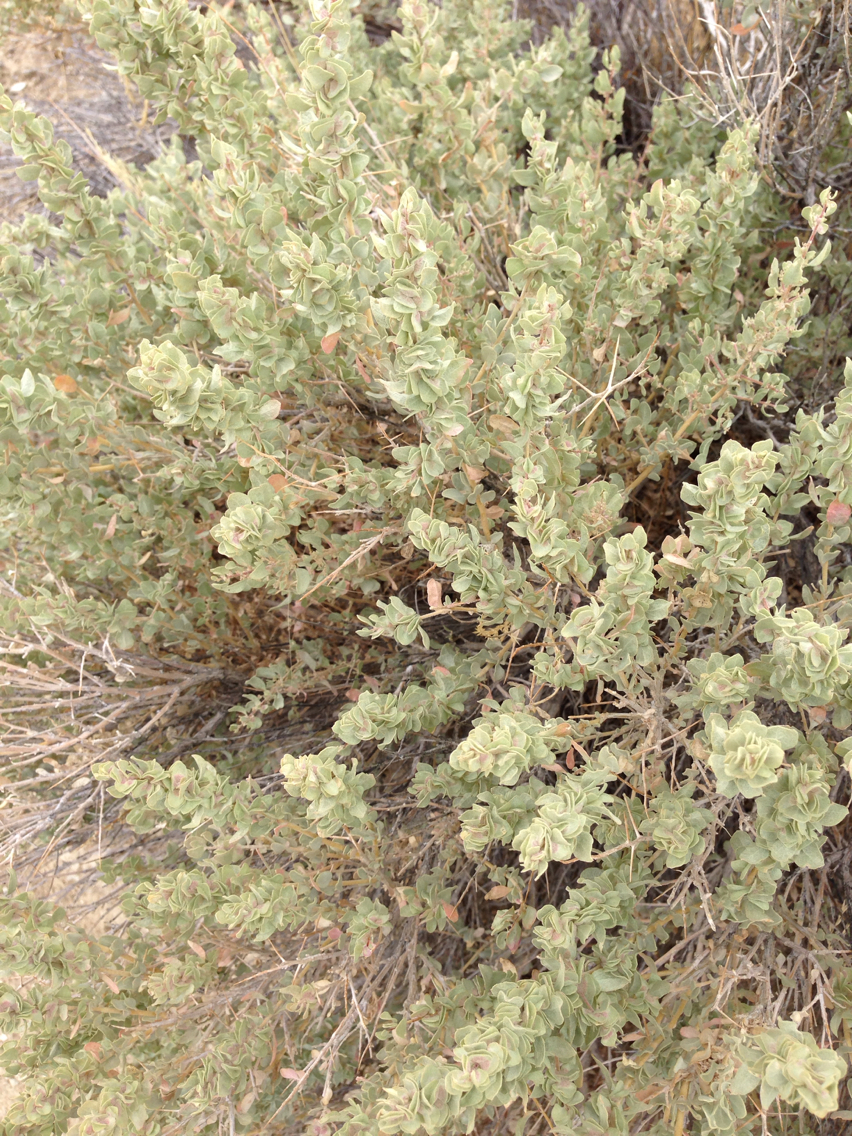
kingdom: Plantae
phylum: Tracheophyta
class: Magnoliopsida
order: Caryophyllales
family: Amaranthaceae
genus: Atriplex
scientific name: Atriplex confertifolia
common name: Shadscale
